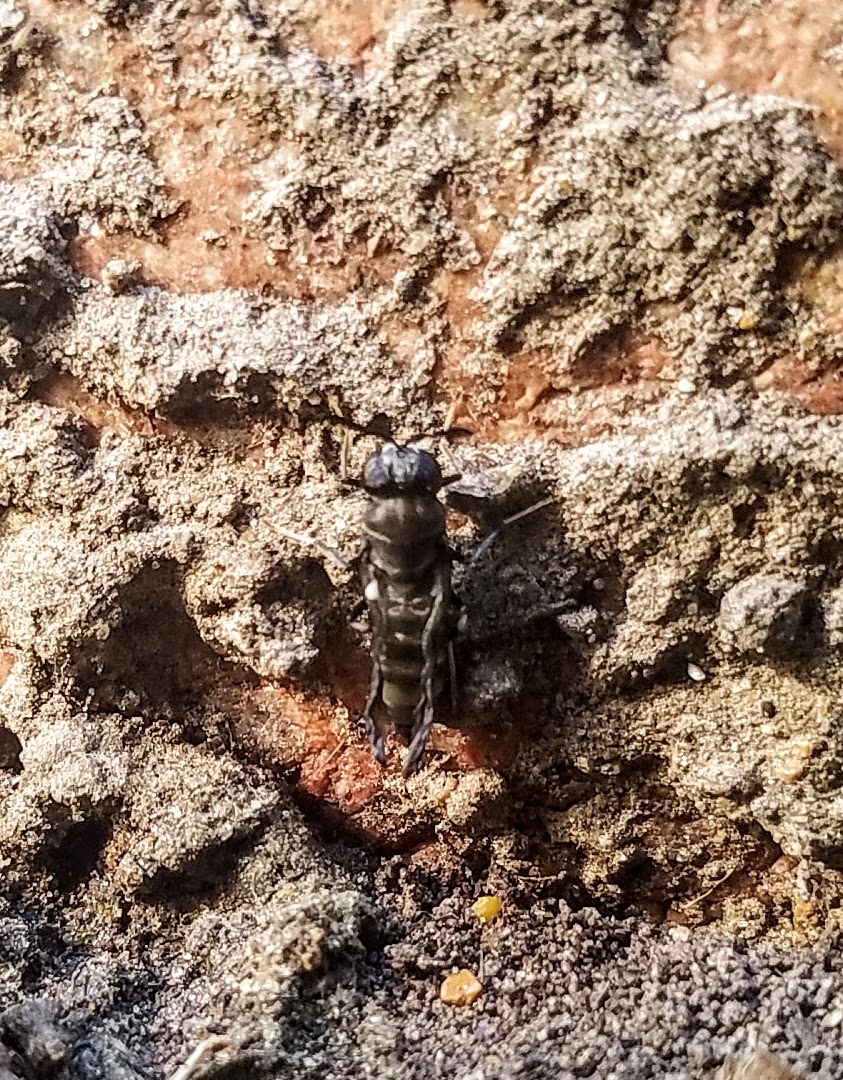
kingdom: Animalia
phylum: Arthropoda
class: Insecta
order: Diptera
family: Stratiomyidae
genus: Hermetia
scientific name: Hermetia illucens
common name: Black soldier fly
